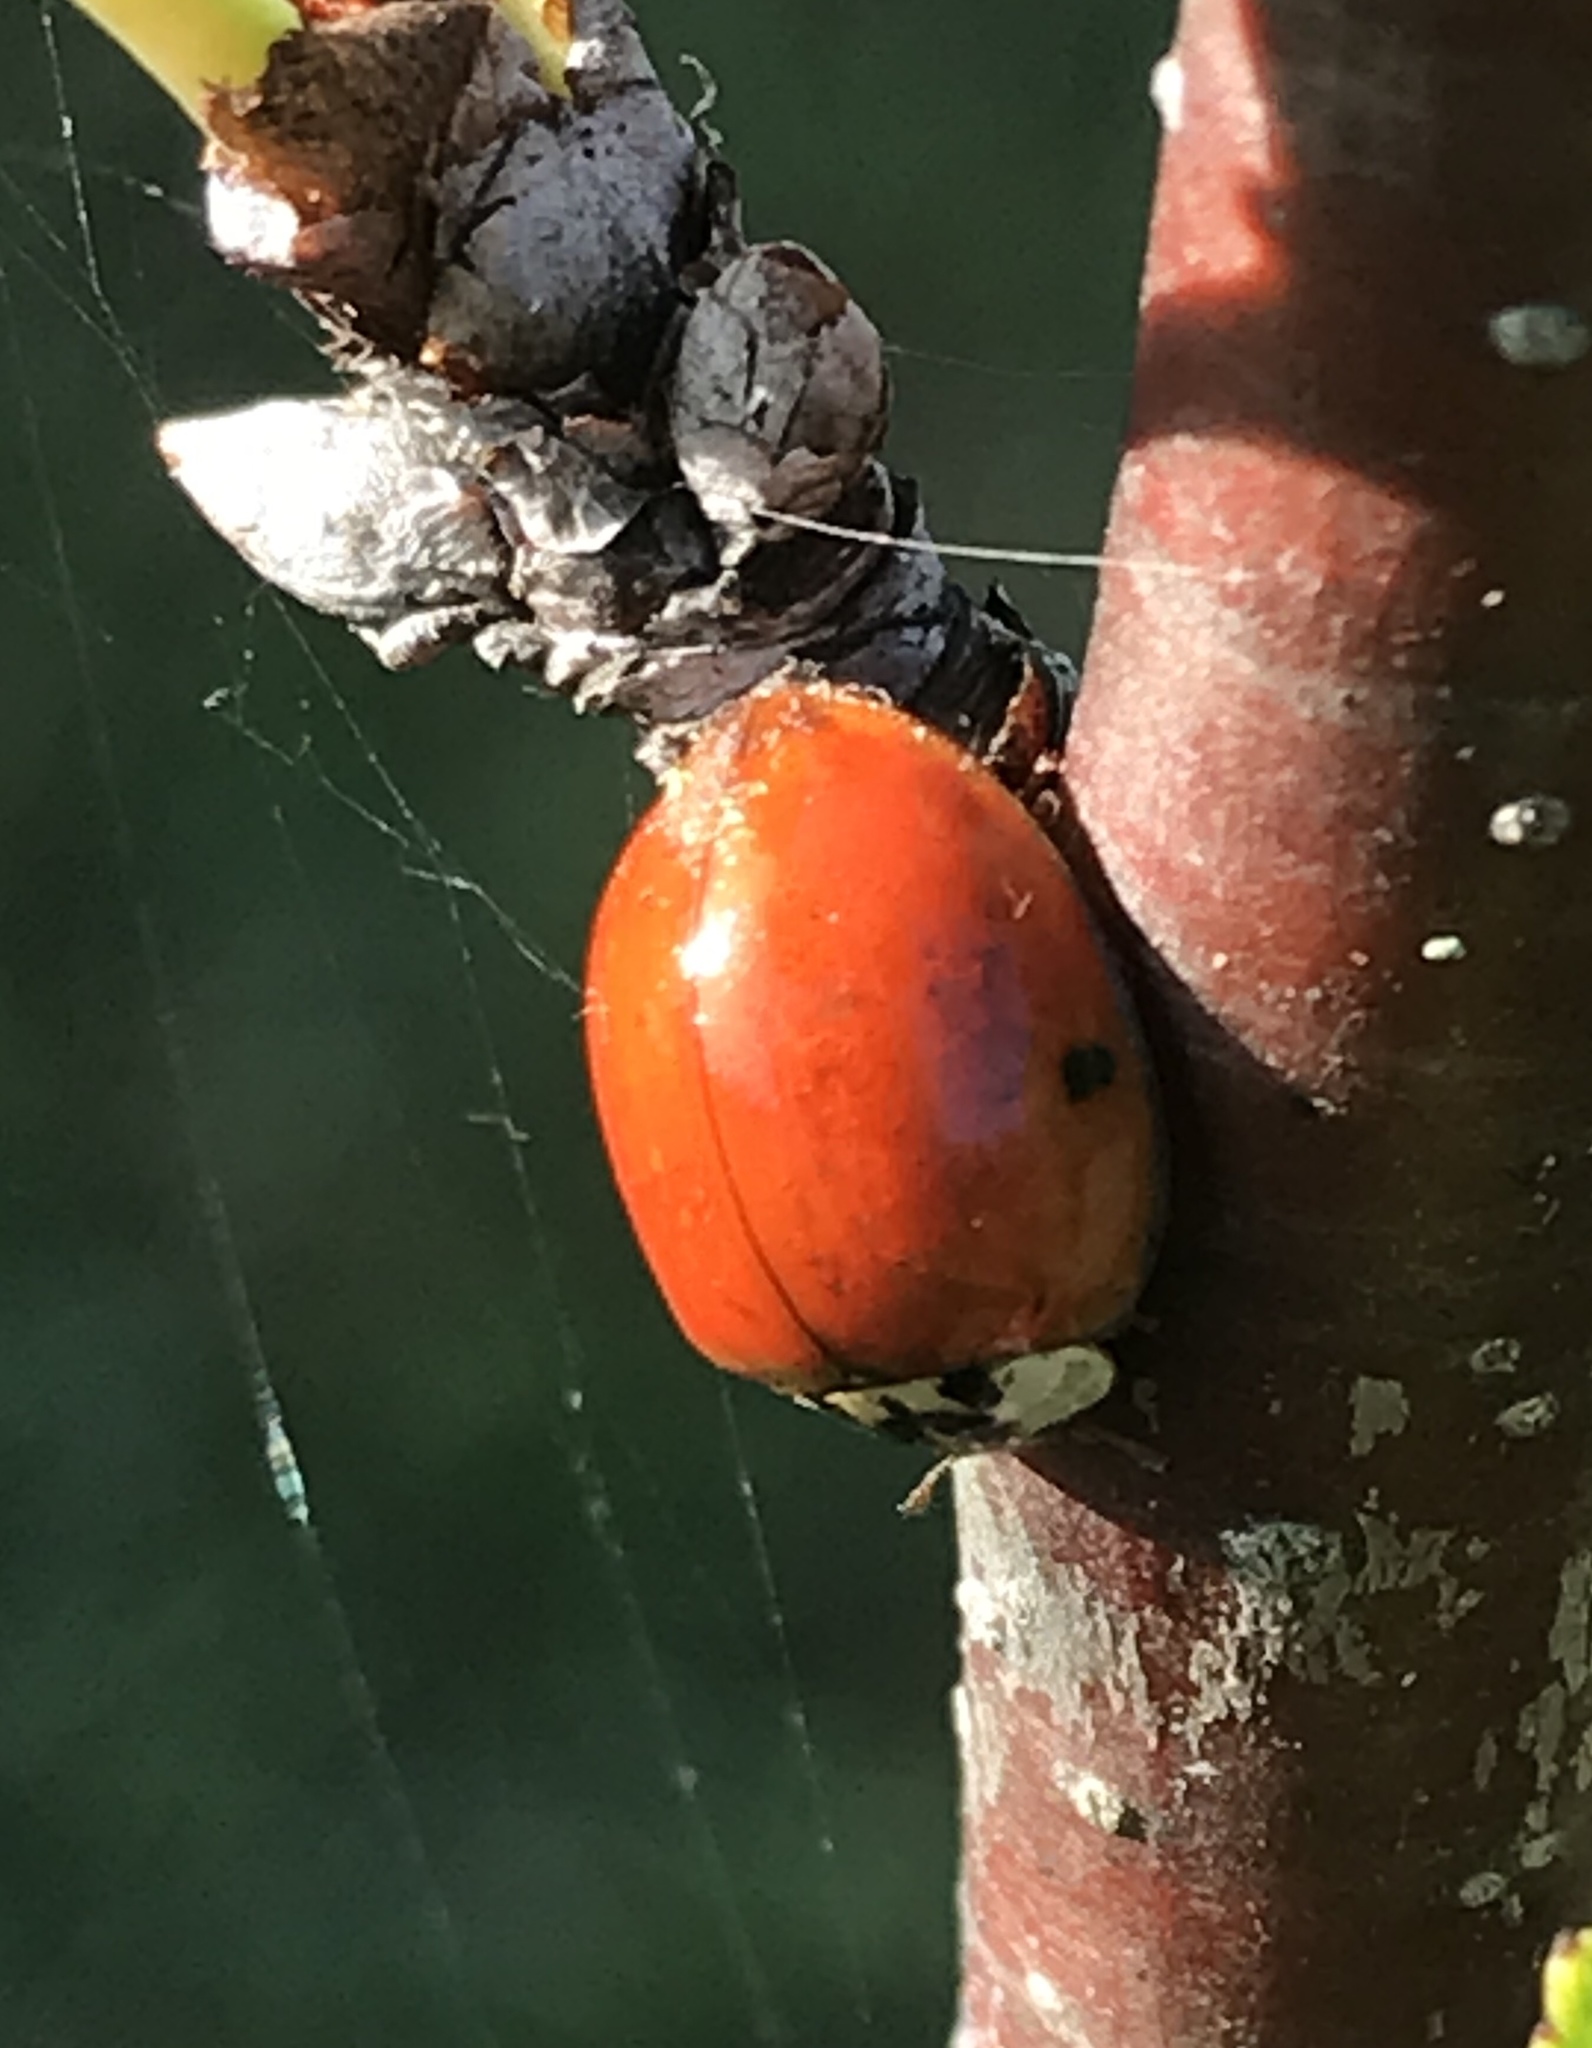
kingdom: Animalia
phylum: Arthropoda
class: Insecta
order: Coleoptera
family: Coccinellidae
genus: Harmonia
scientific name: Harmonia axyridis
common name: Harlequin ladybird
